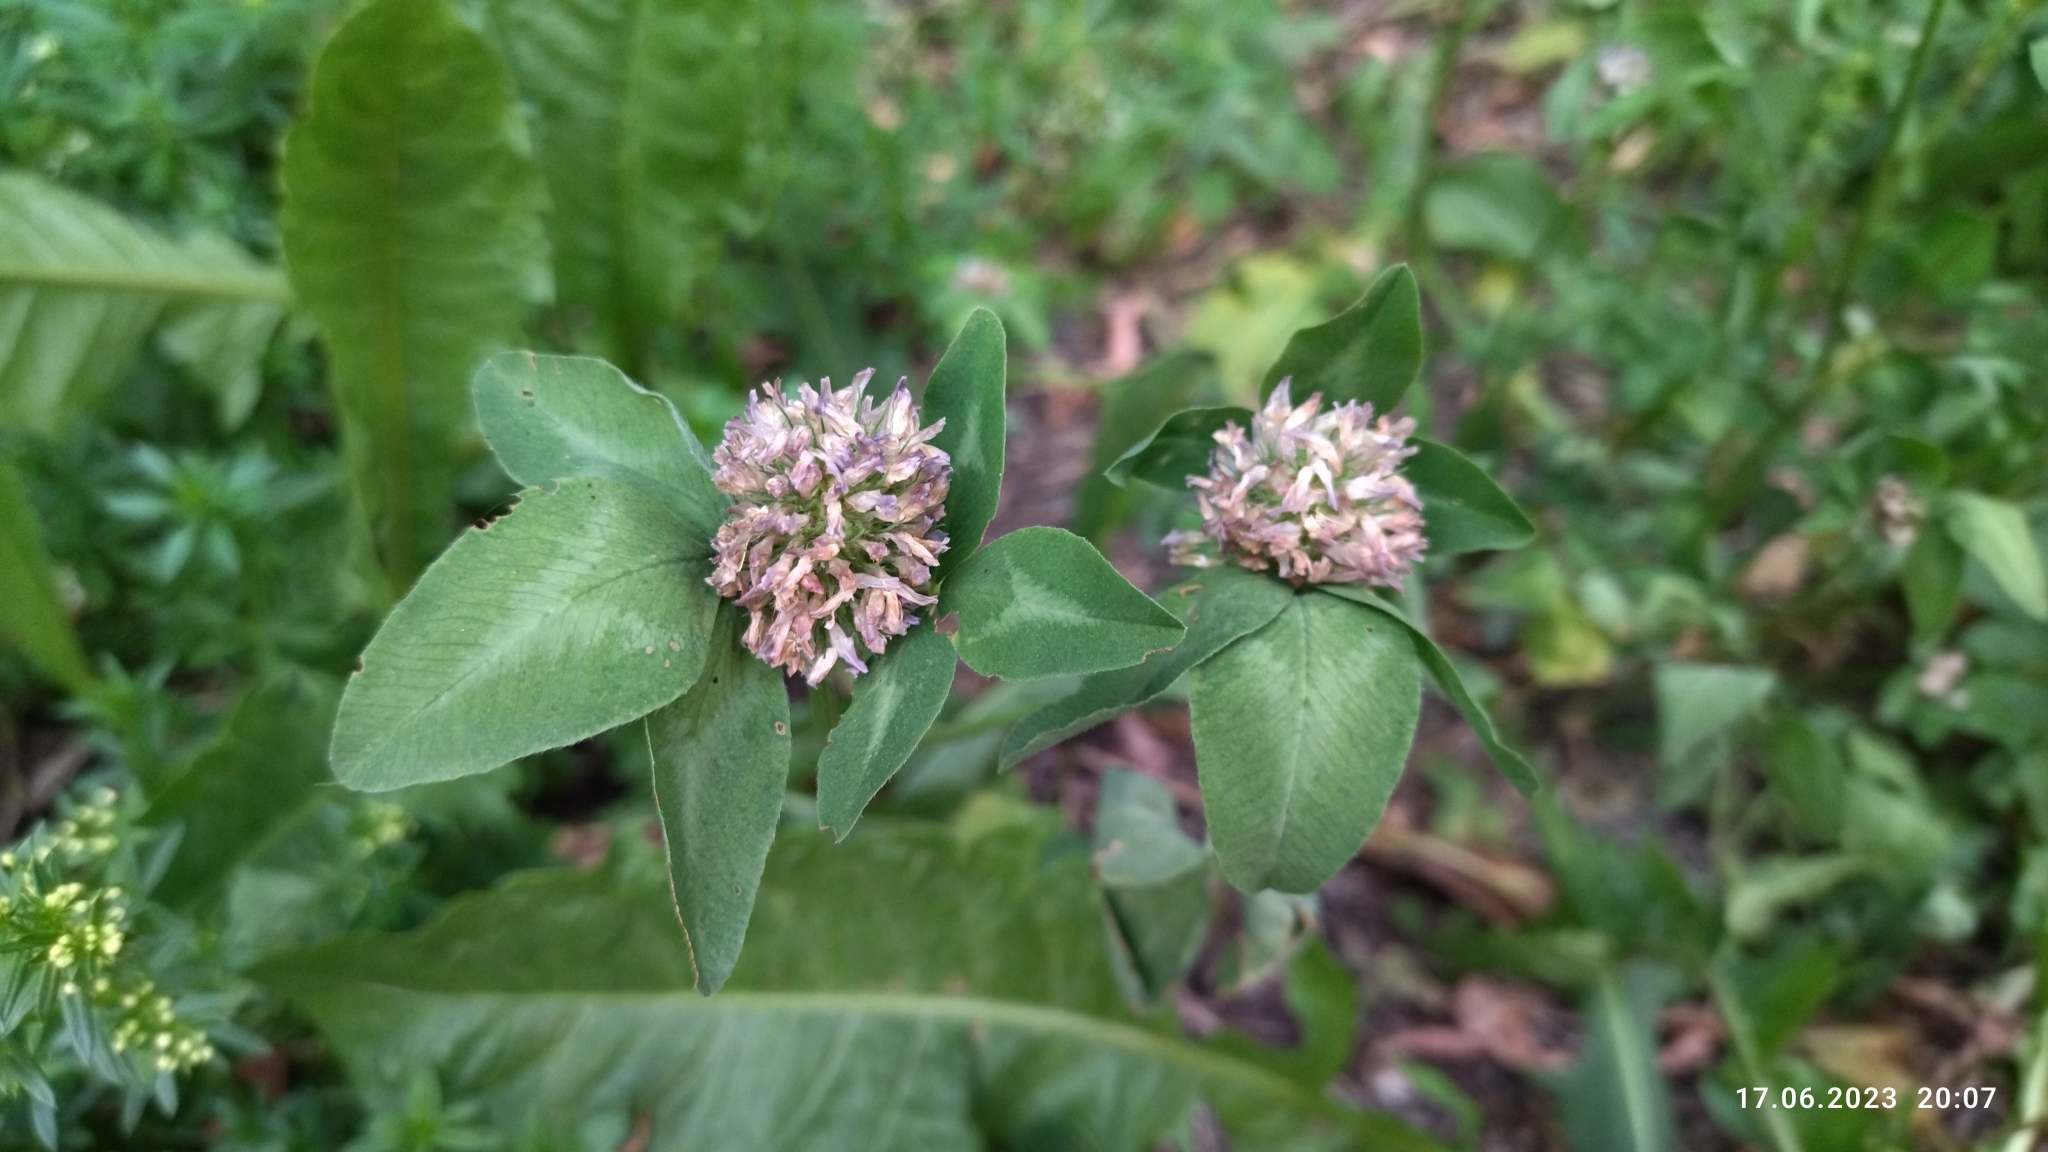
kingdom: Plantae
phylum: Tracheophyta
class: Magnoliopsida
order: Fabales
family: Fabaceae
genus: Trifolium
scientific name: Trifolium pratense
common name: Red clover
